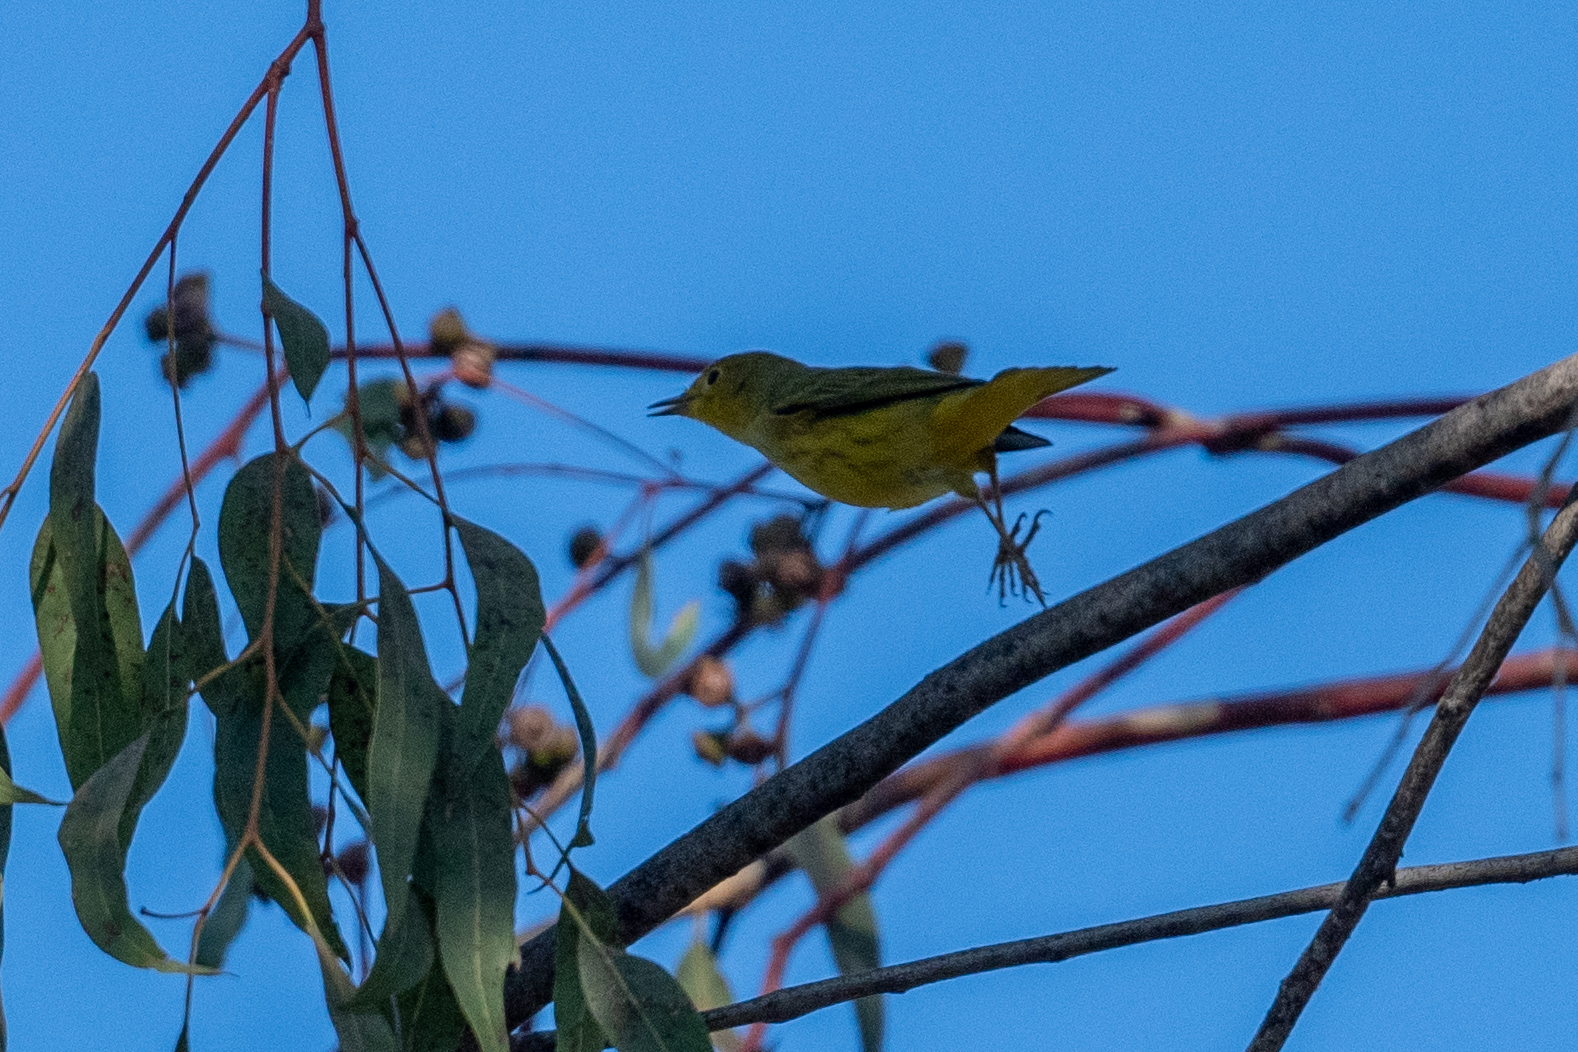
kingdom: Animalia
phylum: Chordata
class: Aves
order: Passeriformes
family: Parulidae
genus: Setophaga
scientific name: Setophaga petechia
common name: Yellow warbler
